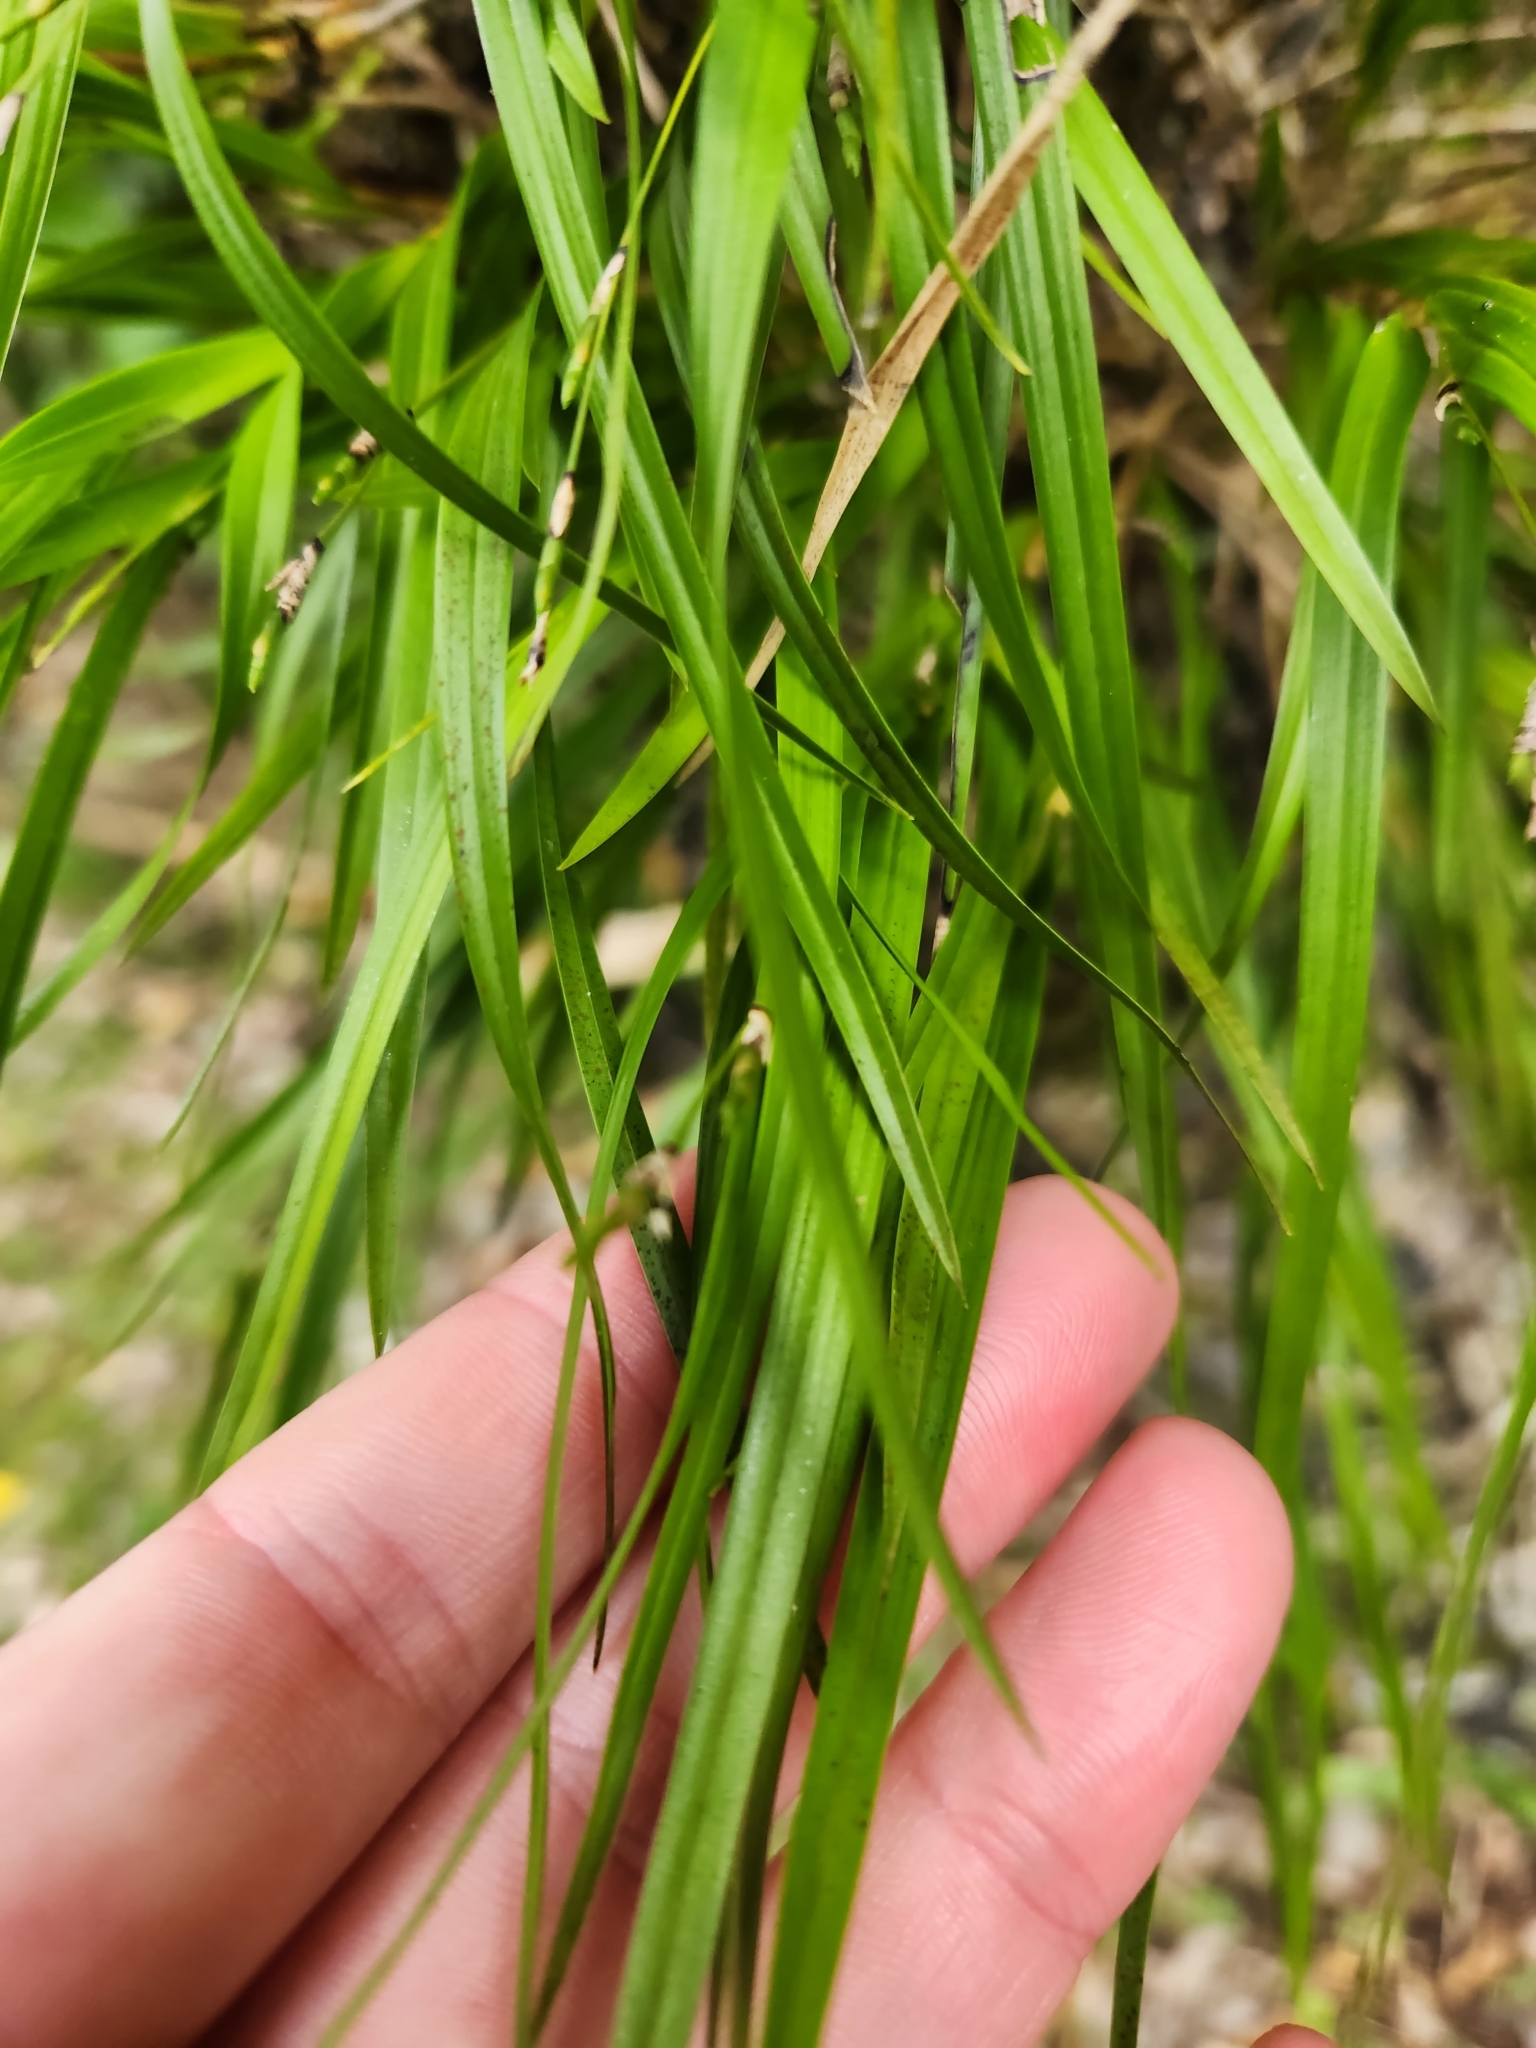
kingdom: Plantae
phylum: Tracheophyta
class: Liliopsida
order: Asparagales
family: Orchidaceae
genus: Earina
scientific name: Earina mucronata
